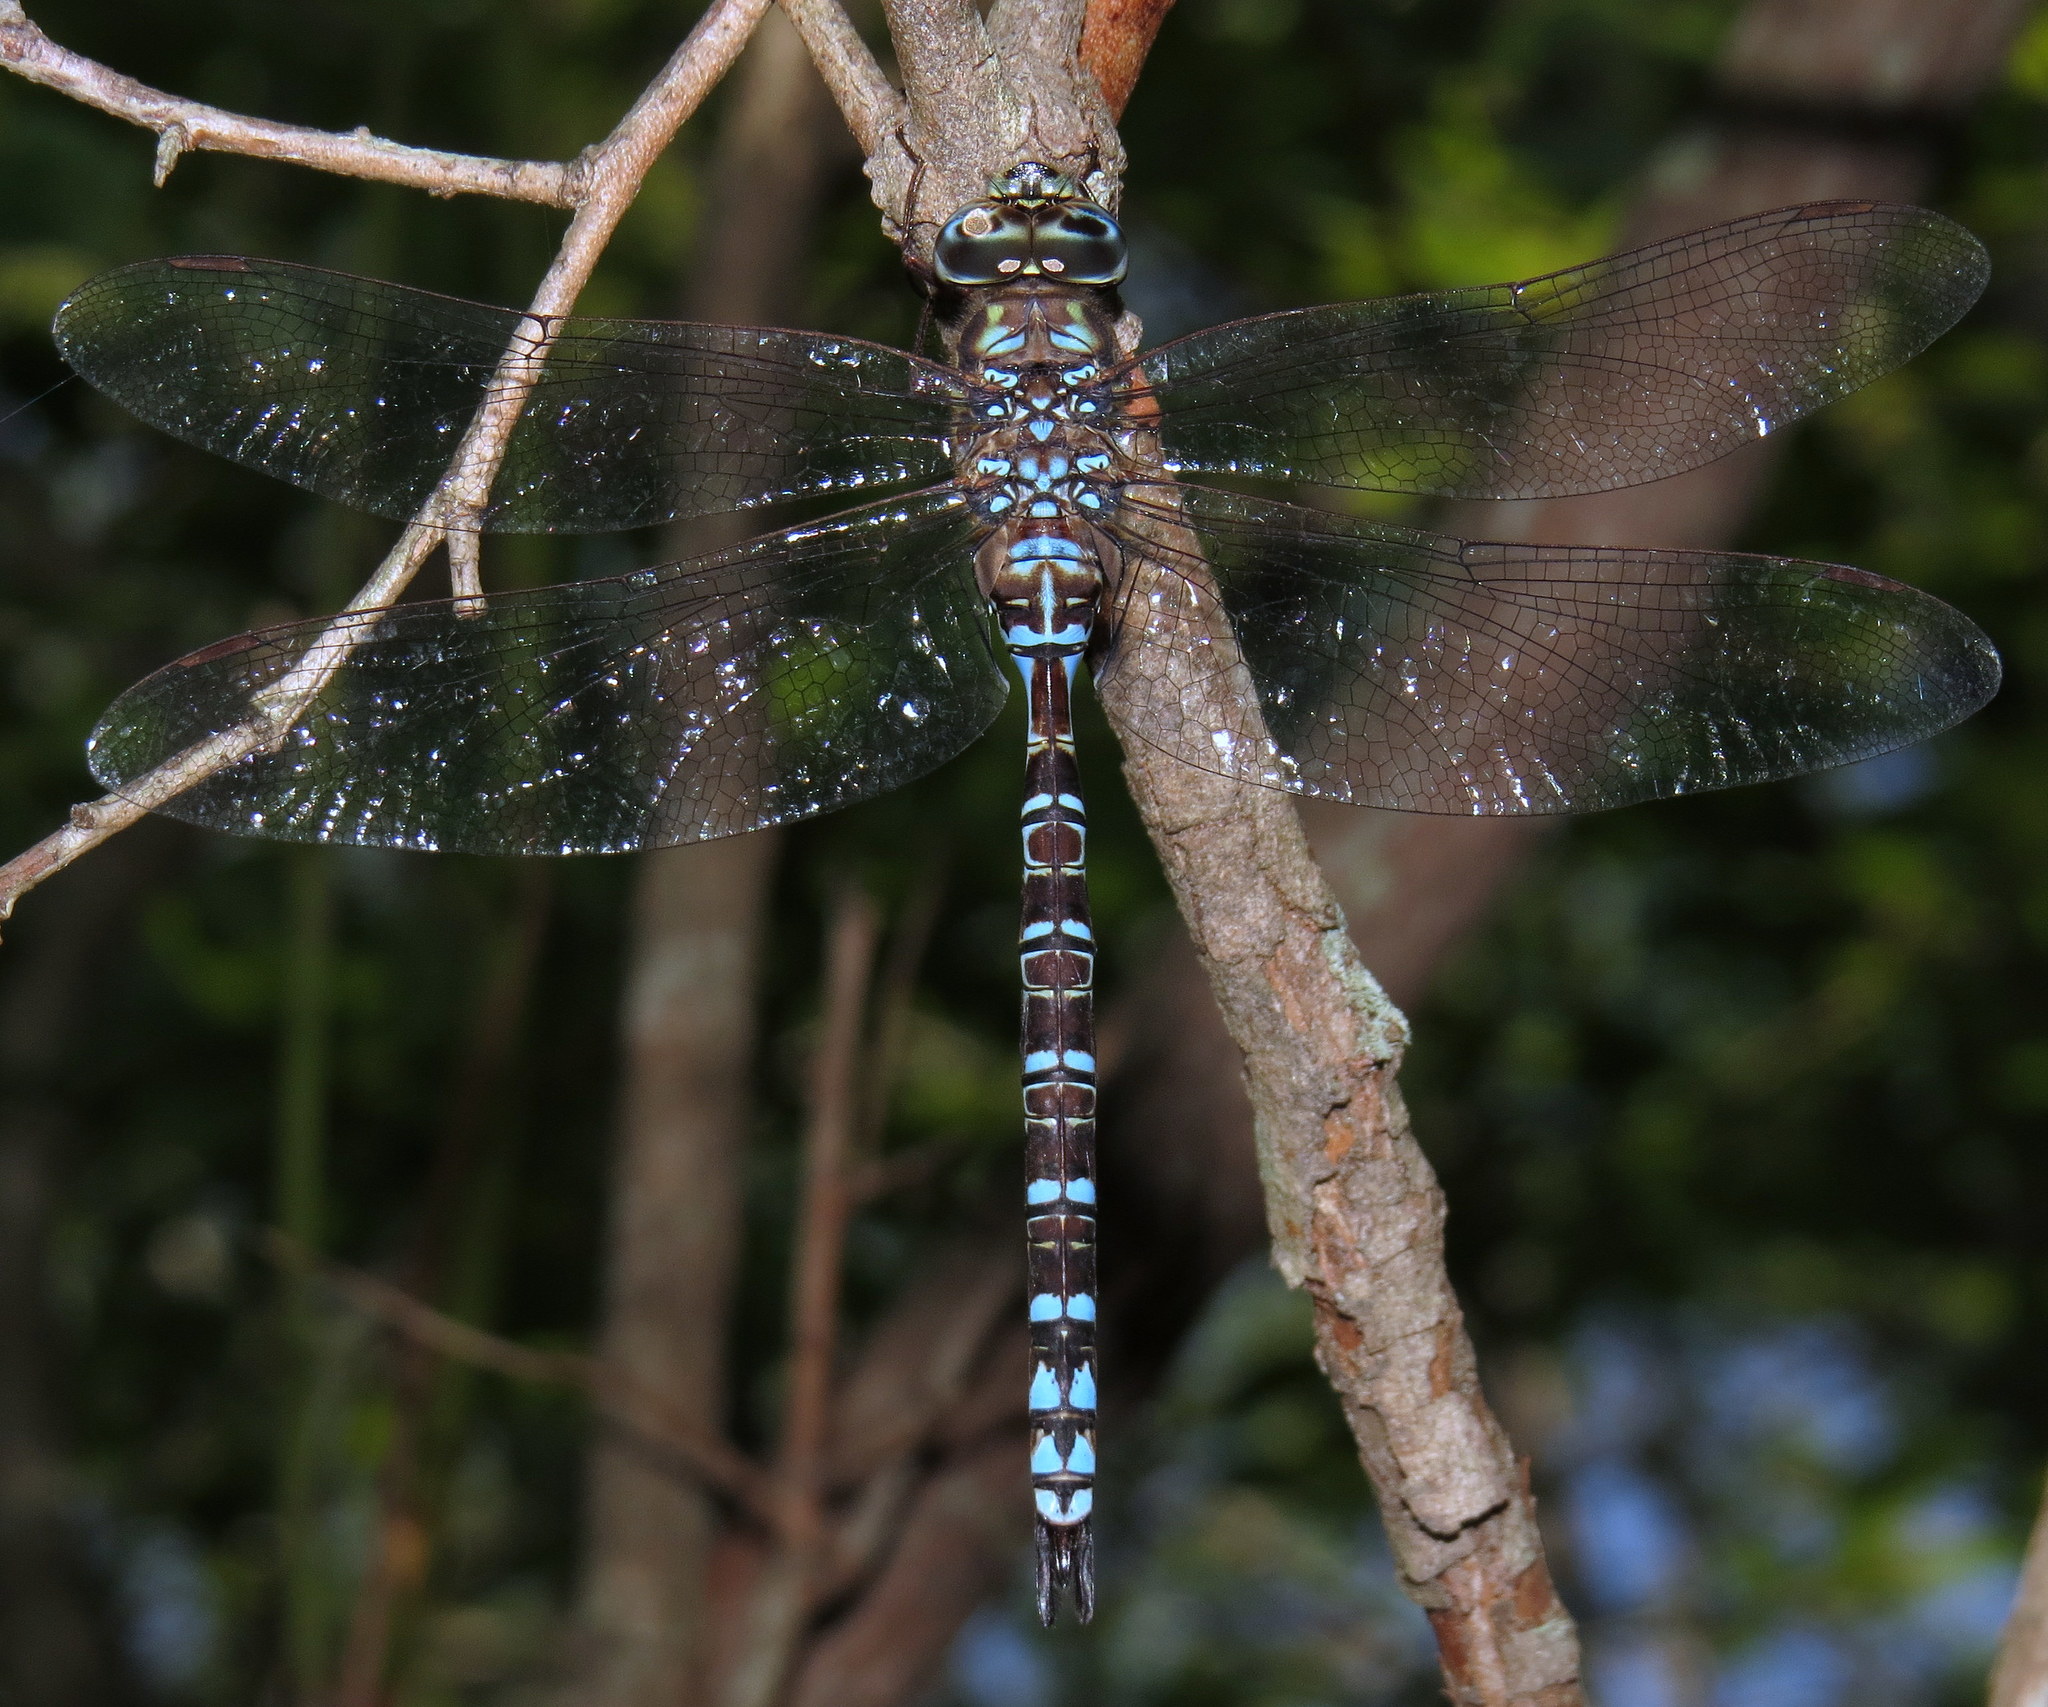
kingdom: Animalia
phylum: Arthropoda
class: Insecta
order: Odonata
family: Aeshnidae
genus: Aeshna
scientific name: Aeshna clepsydra
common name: Mottled darner
